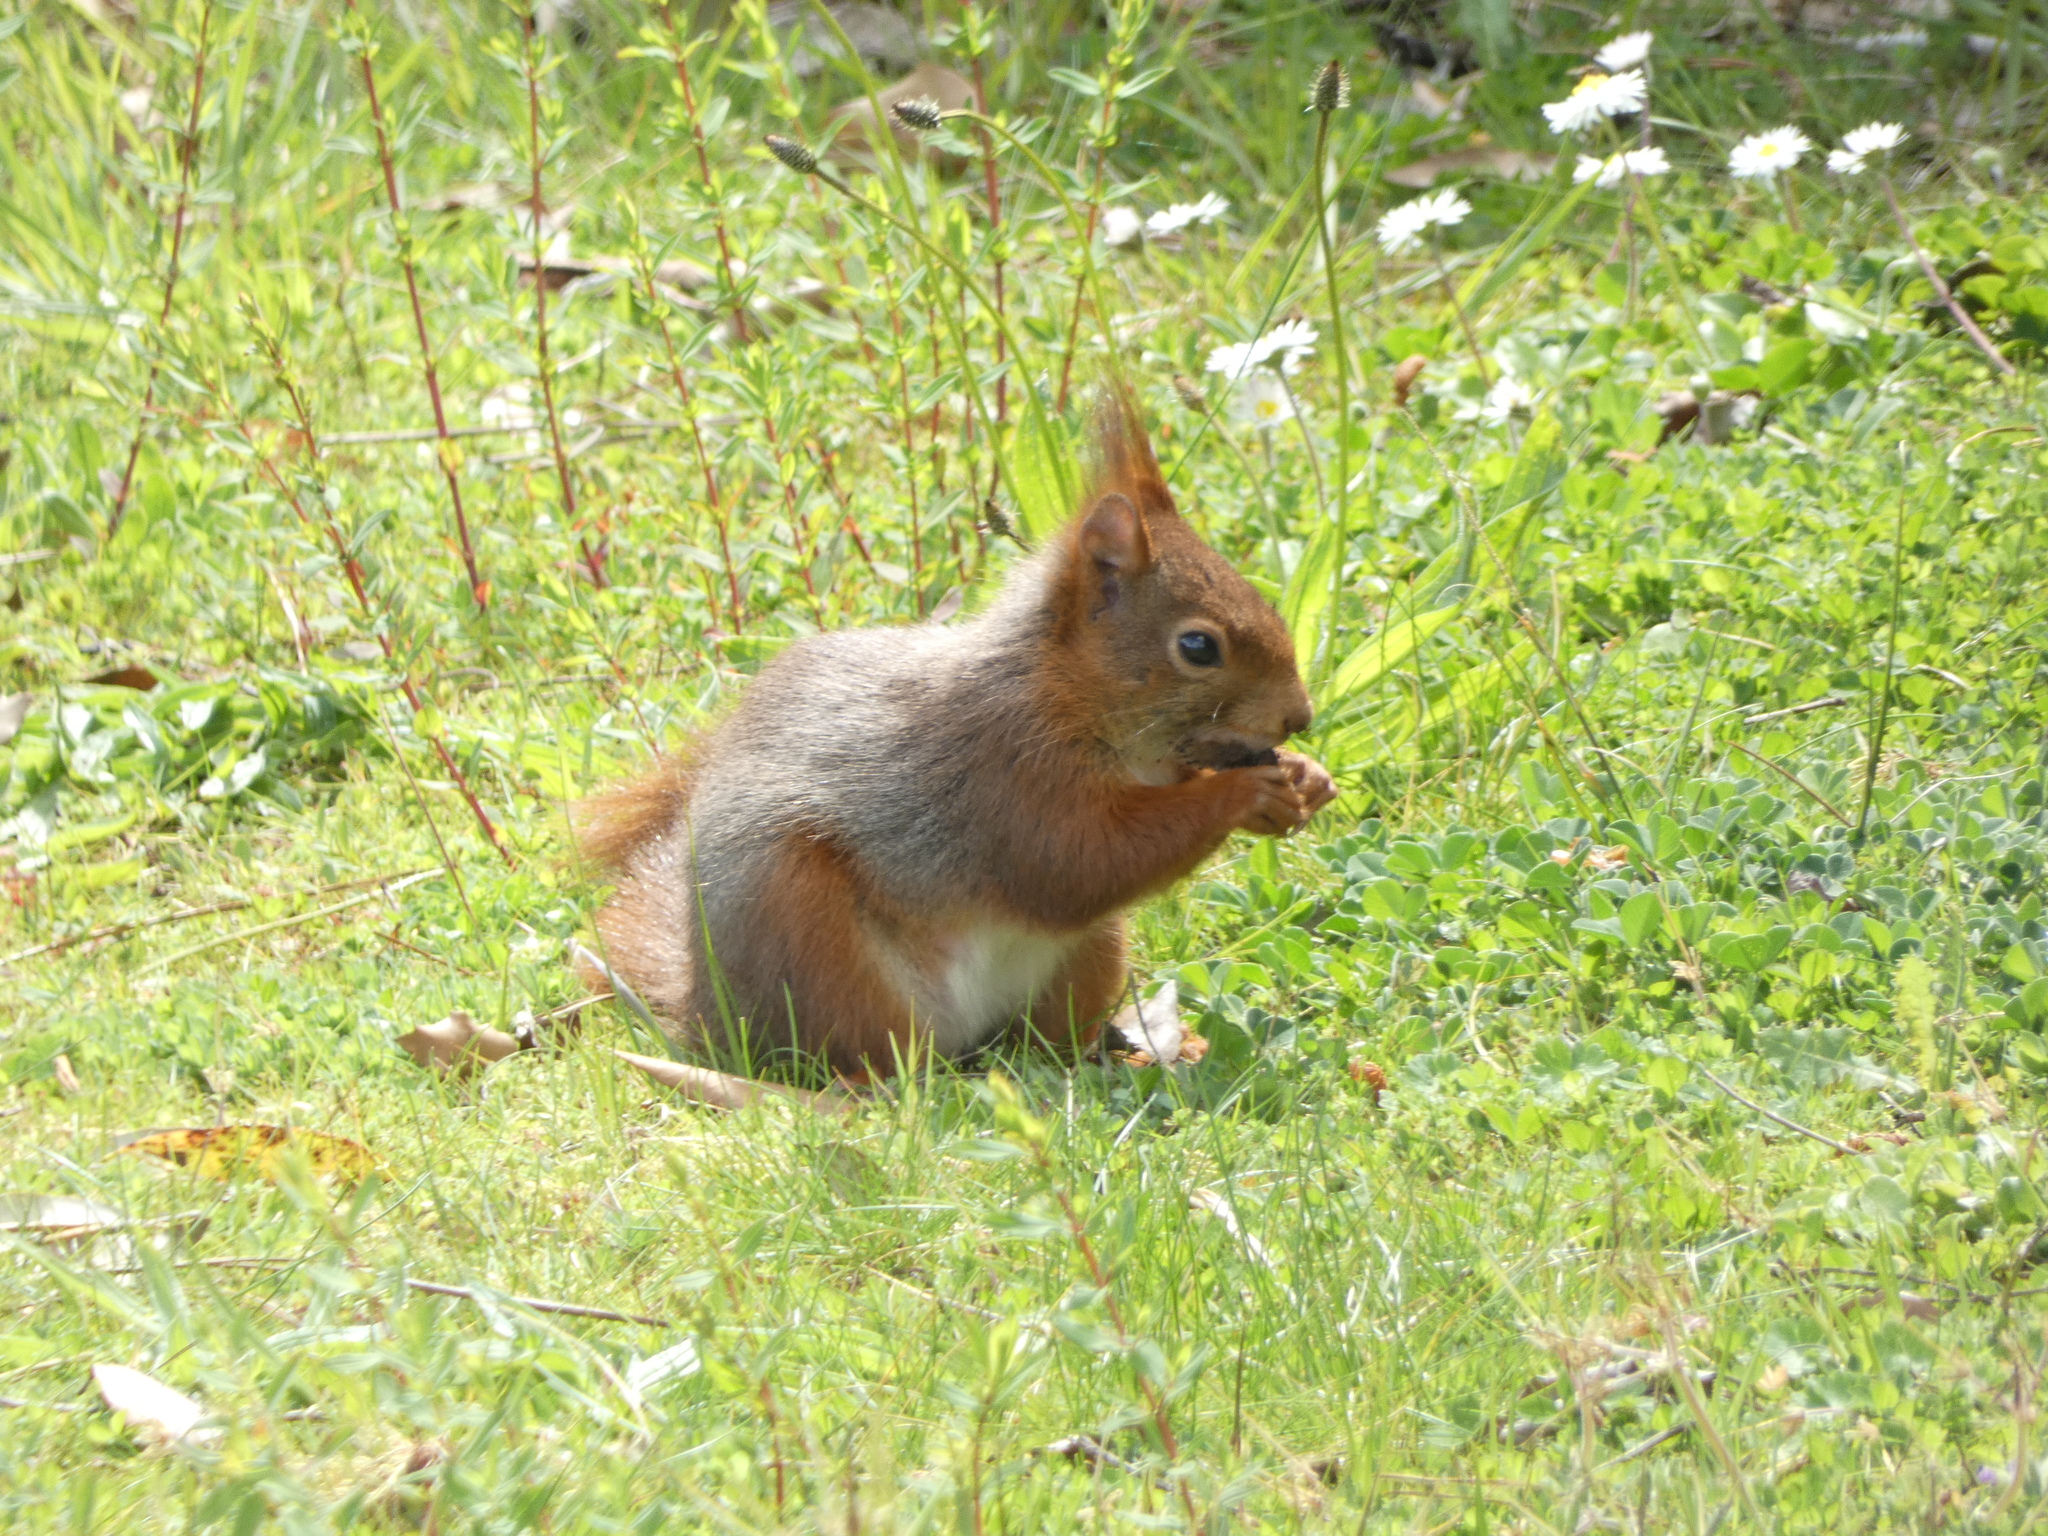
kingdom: Animalia
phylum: Chordata
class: Mammalia
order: Rodentia
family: Sciuridae
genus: Sciurus
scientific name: Sciurus vulgaris
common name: Eurasian red squirrel
